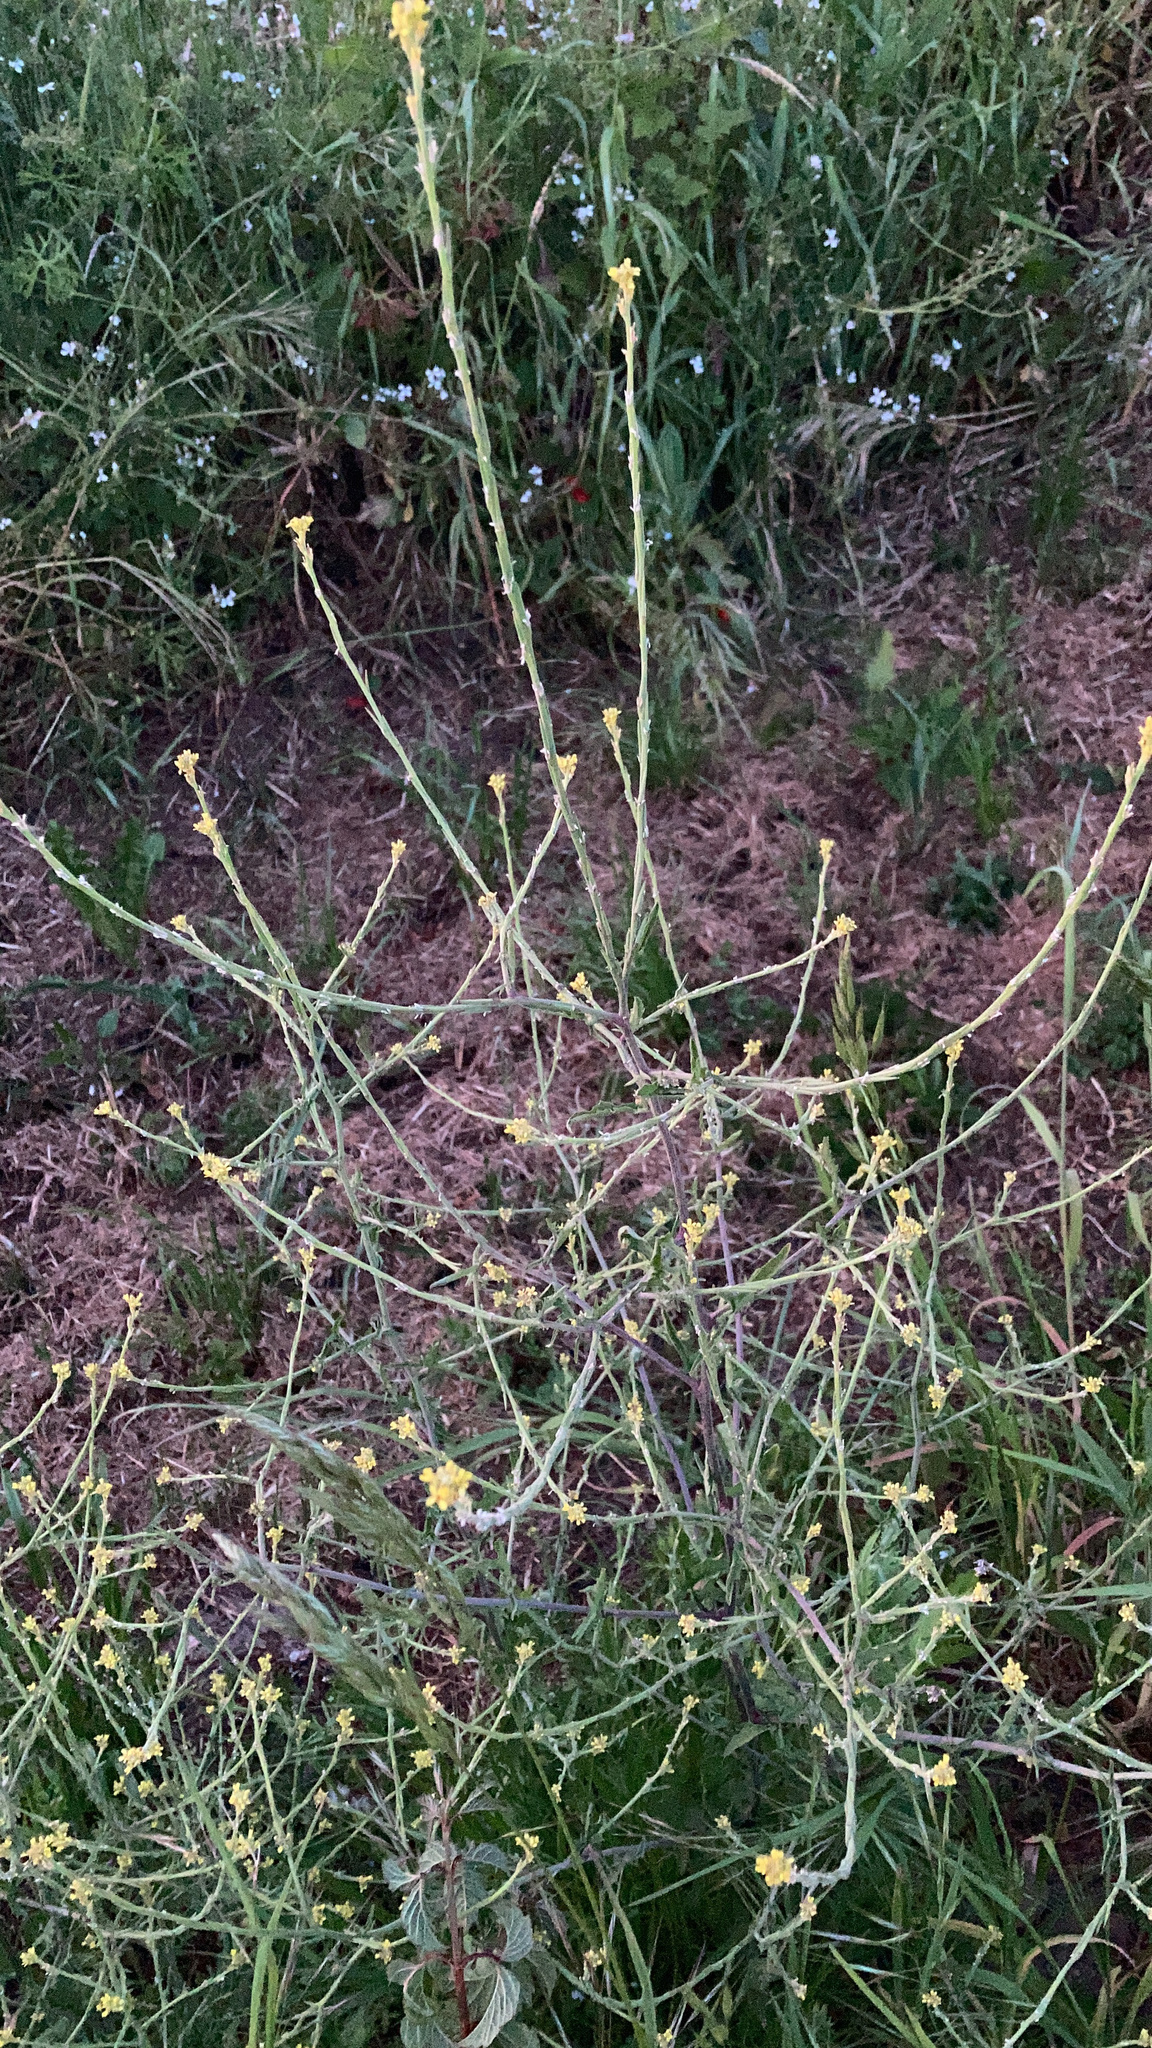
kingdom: Plantae
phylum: Tracheophyta
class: Magnoliopsida
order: Brassicales
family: Brassicaceae
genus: Sisymbrium
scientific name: Sisymbrium officinale
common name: Hedge mustard
